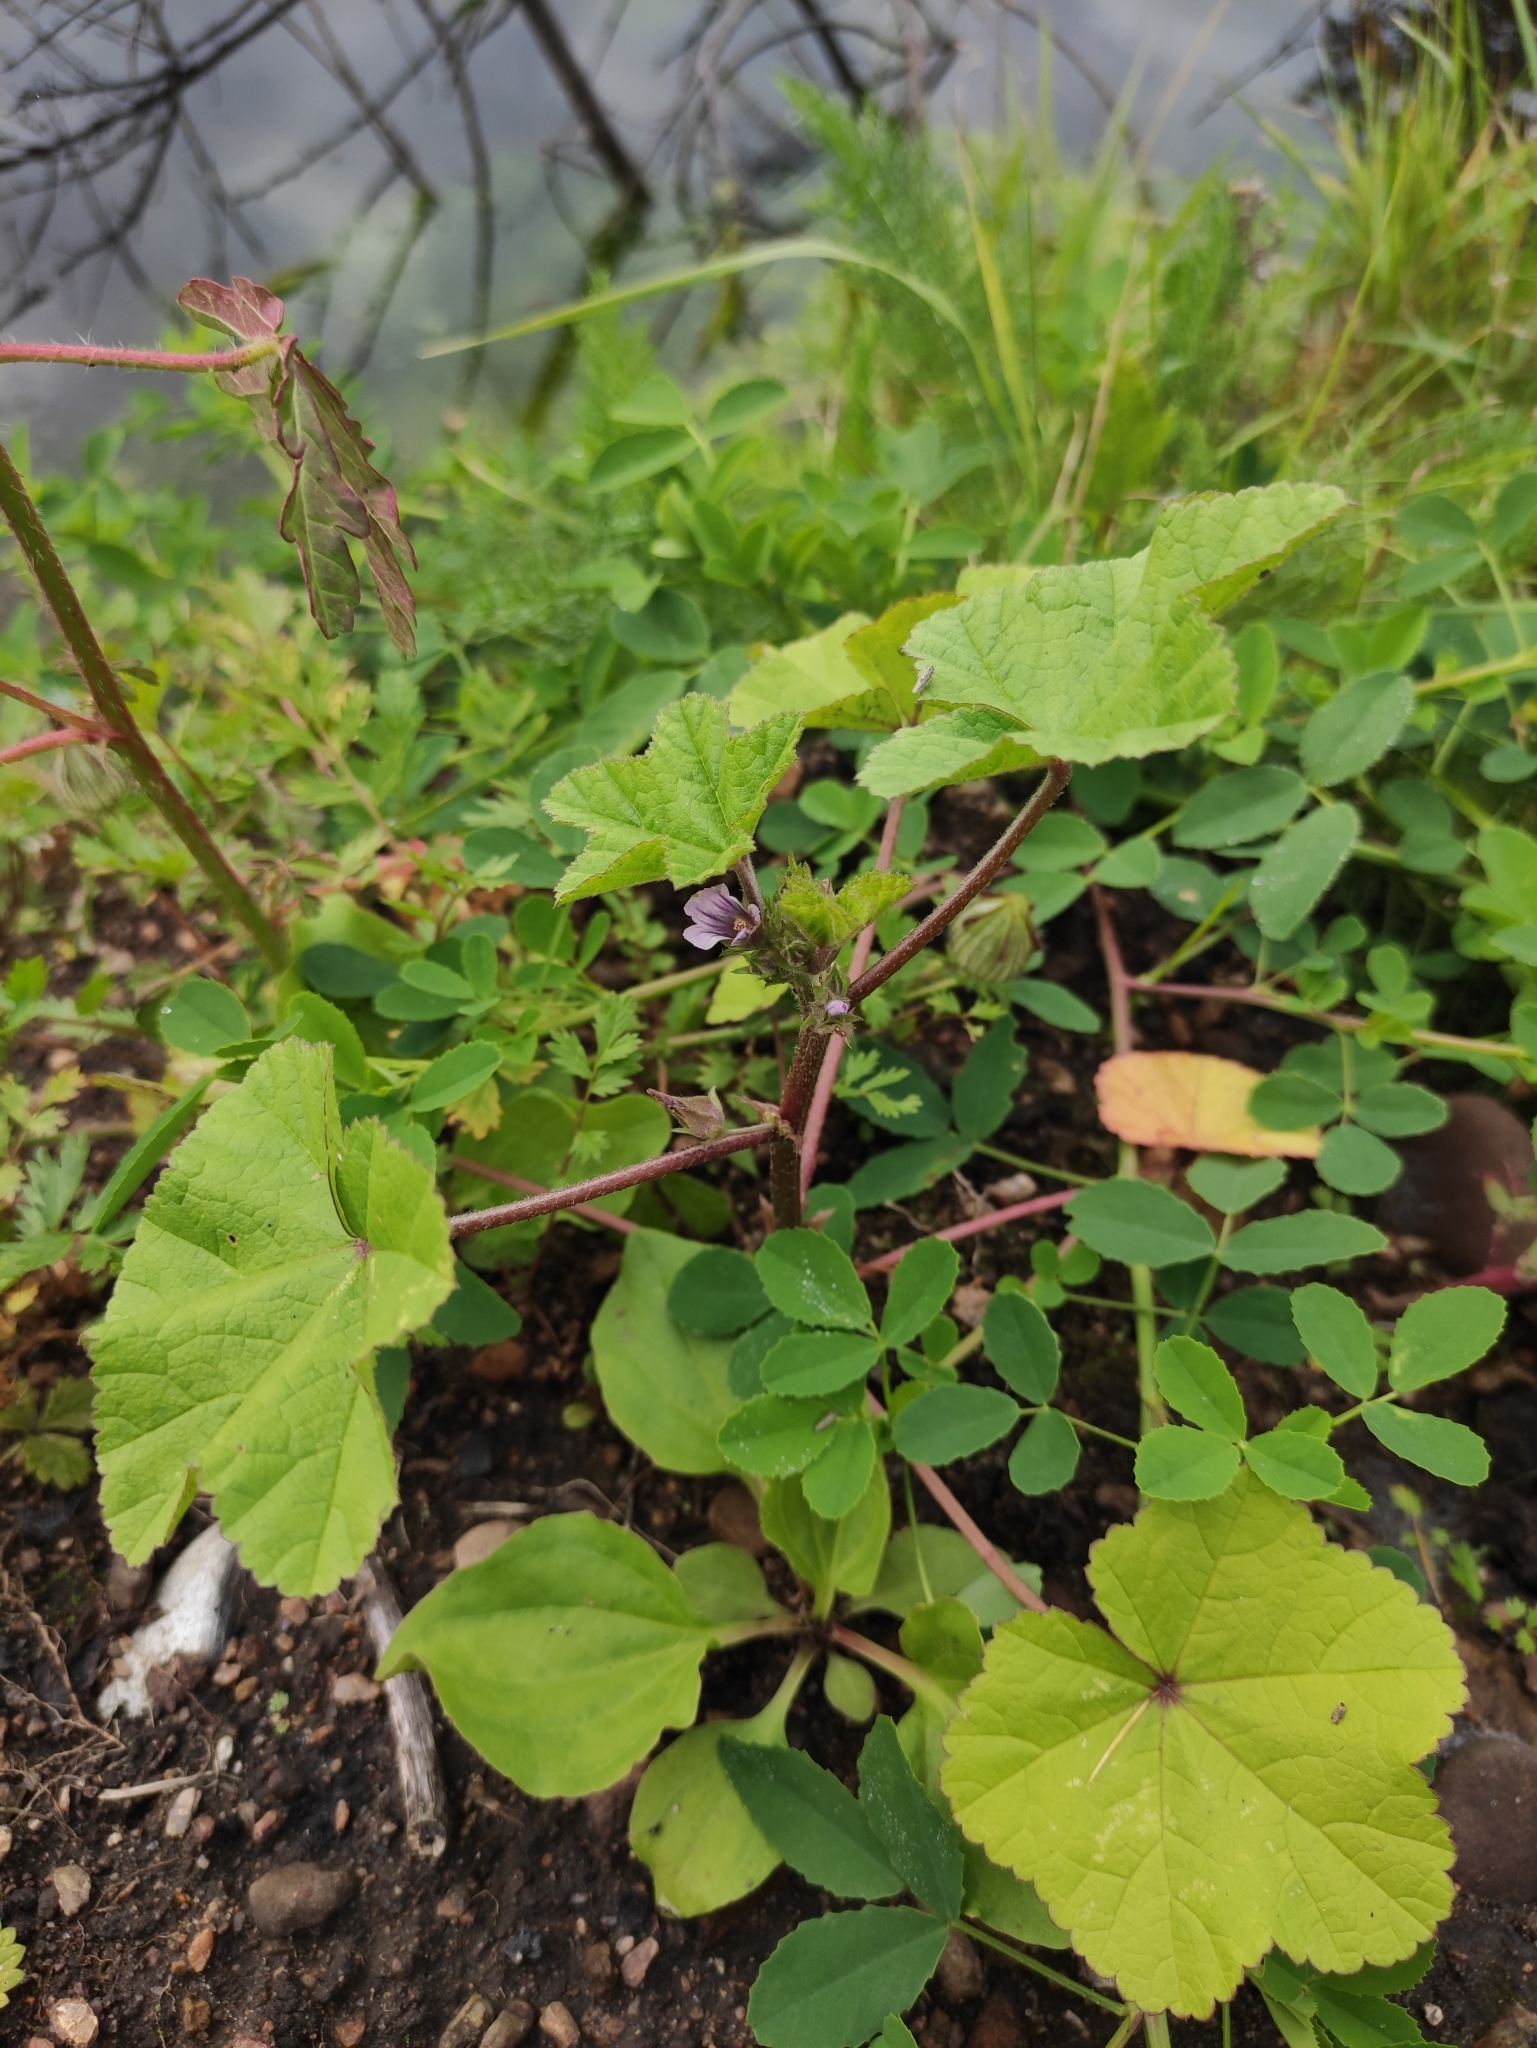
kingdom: Plantae
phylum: Tracheophyta
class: Magnoliopsida
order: Malvales
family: Malvaceae
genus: Malva
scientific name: Malva verticillata
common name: Chinese mallow
